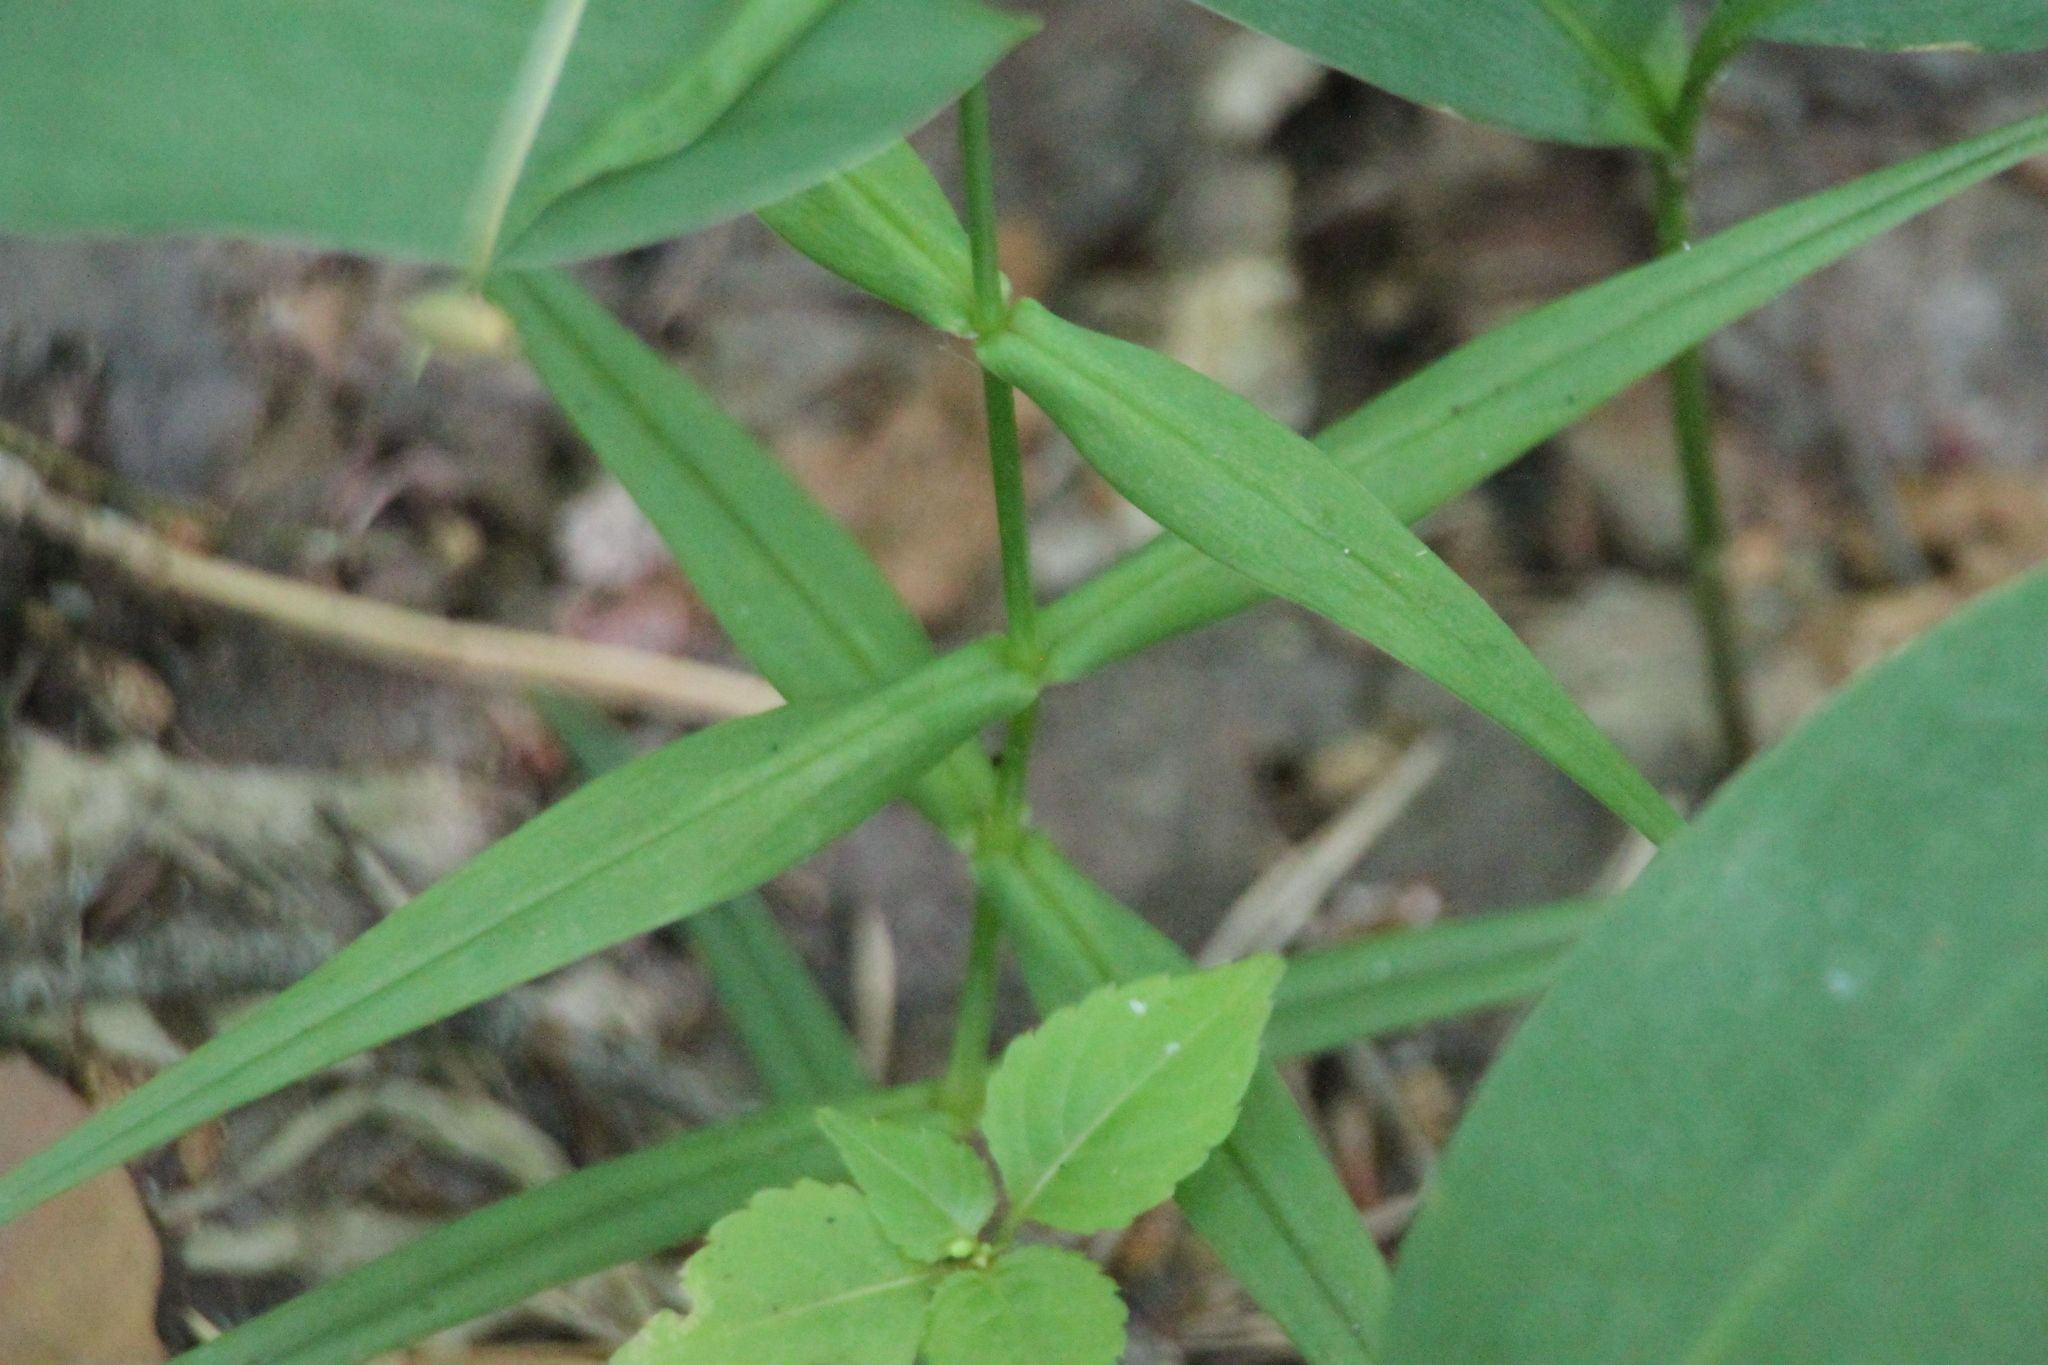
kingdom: Plantae
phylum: Tracheophyta
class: Magnoliopsida
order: Caryophyllales
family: Caryophyllaceae
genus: Rabelera
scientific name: Rabelera holostea
